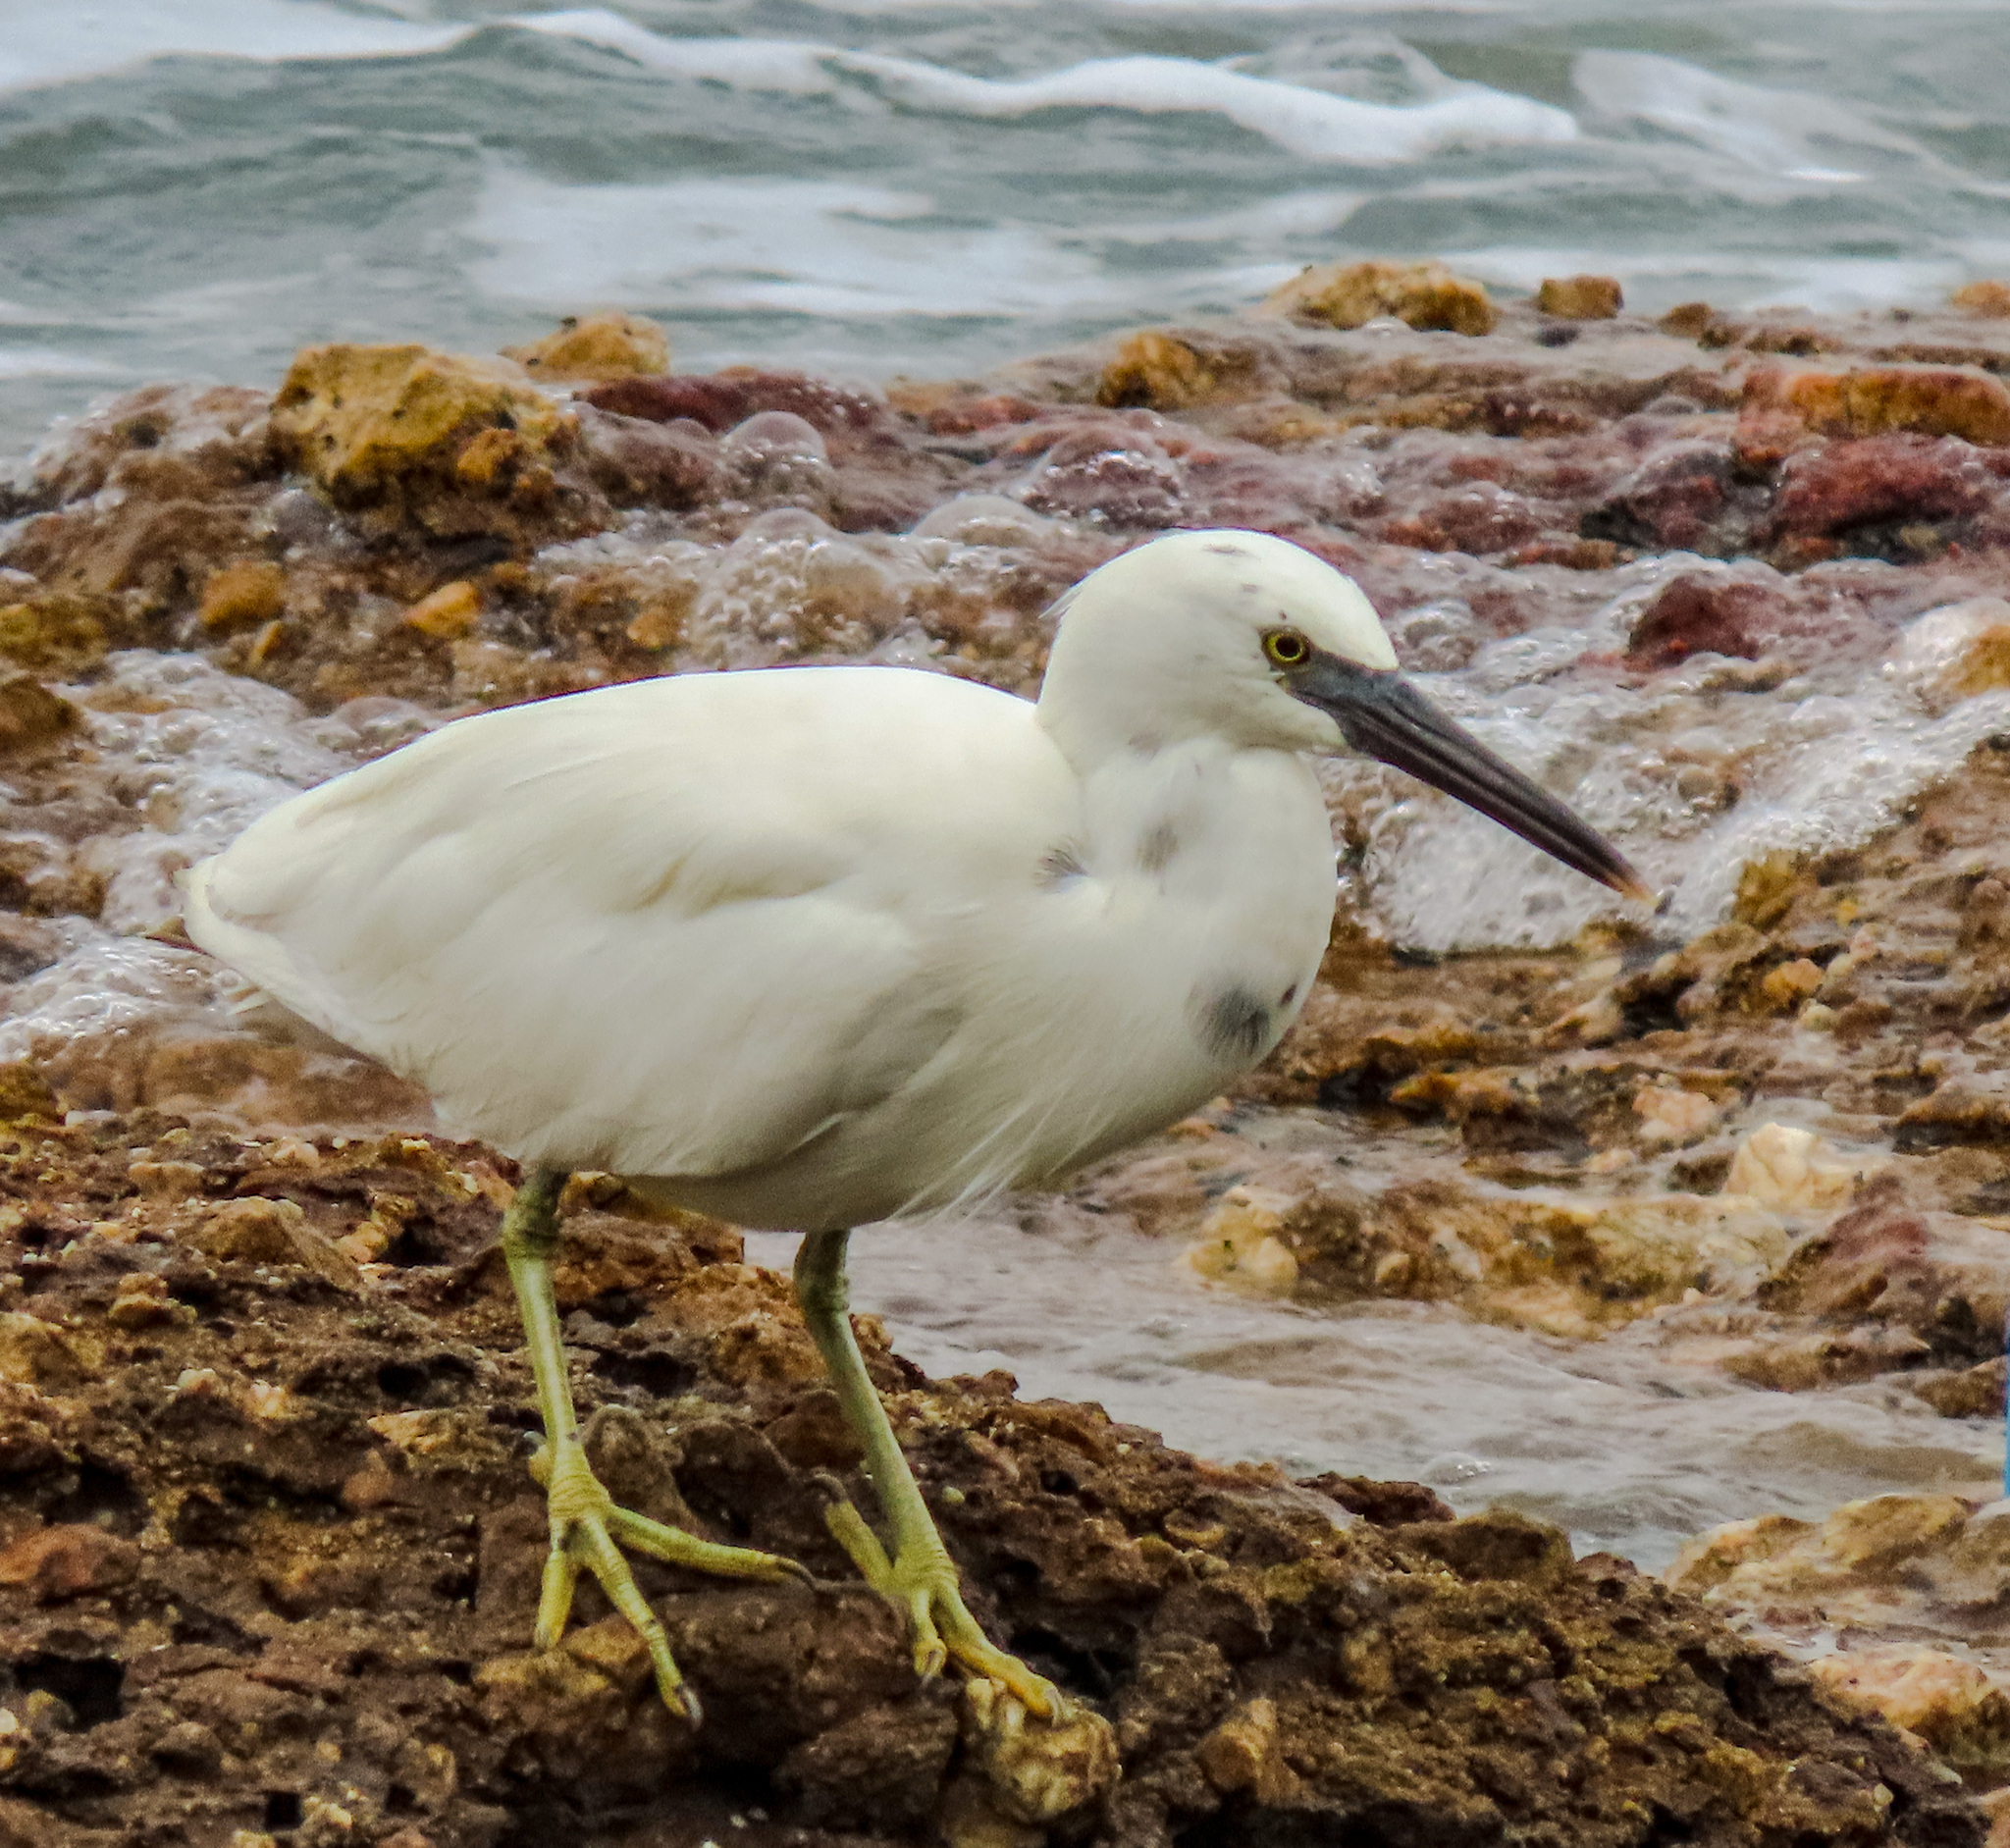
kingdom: Animalia
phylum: Chordata
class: Aves
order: Pelecaniformes
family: Ardeidae
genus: Egretta
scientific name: Egretta sacra
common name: Pacific reef heron
